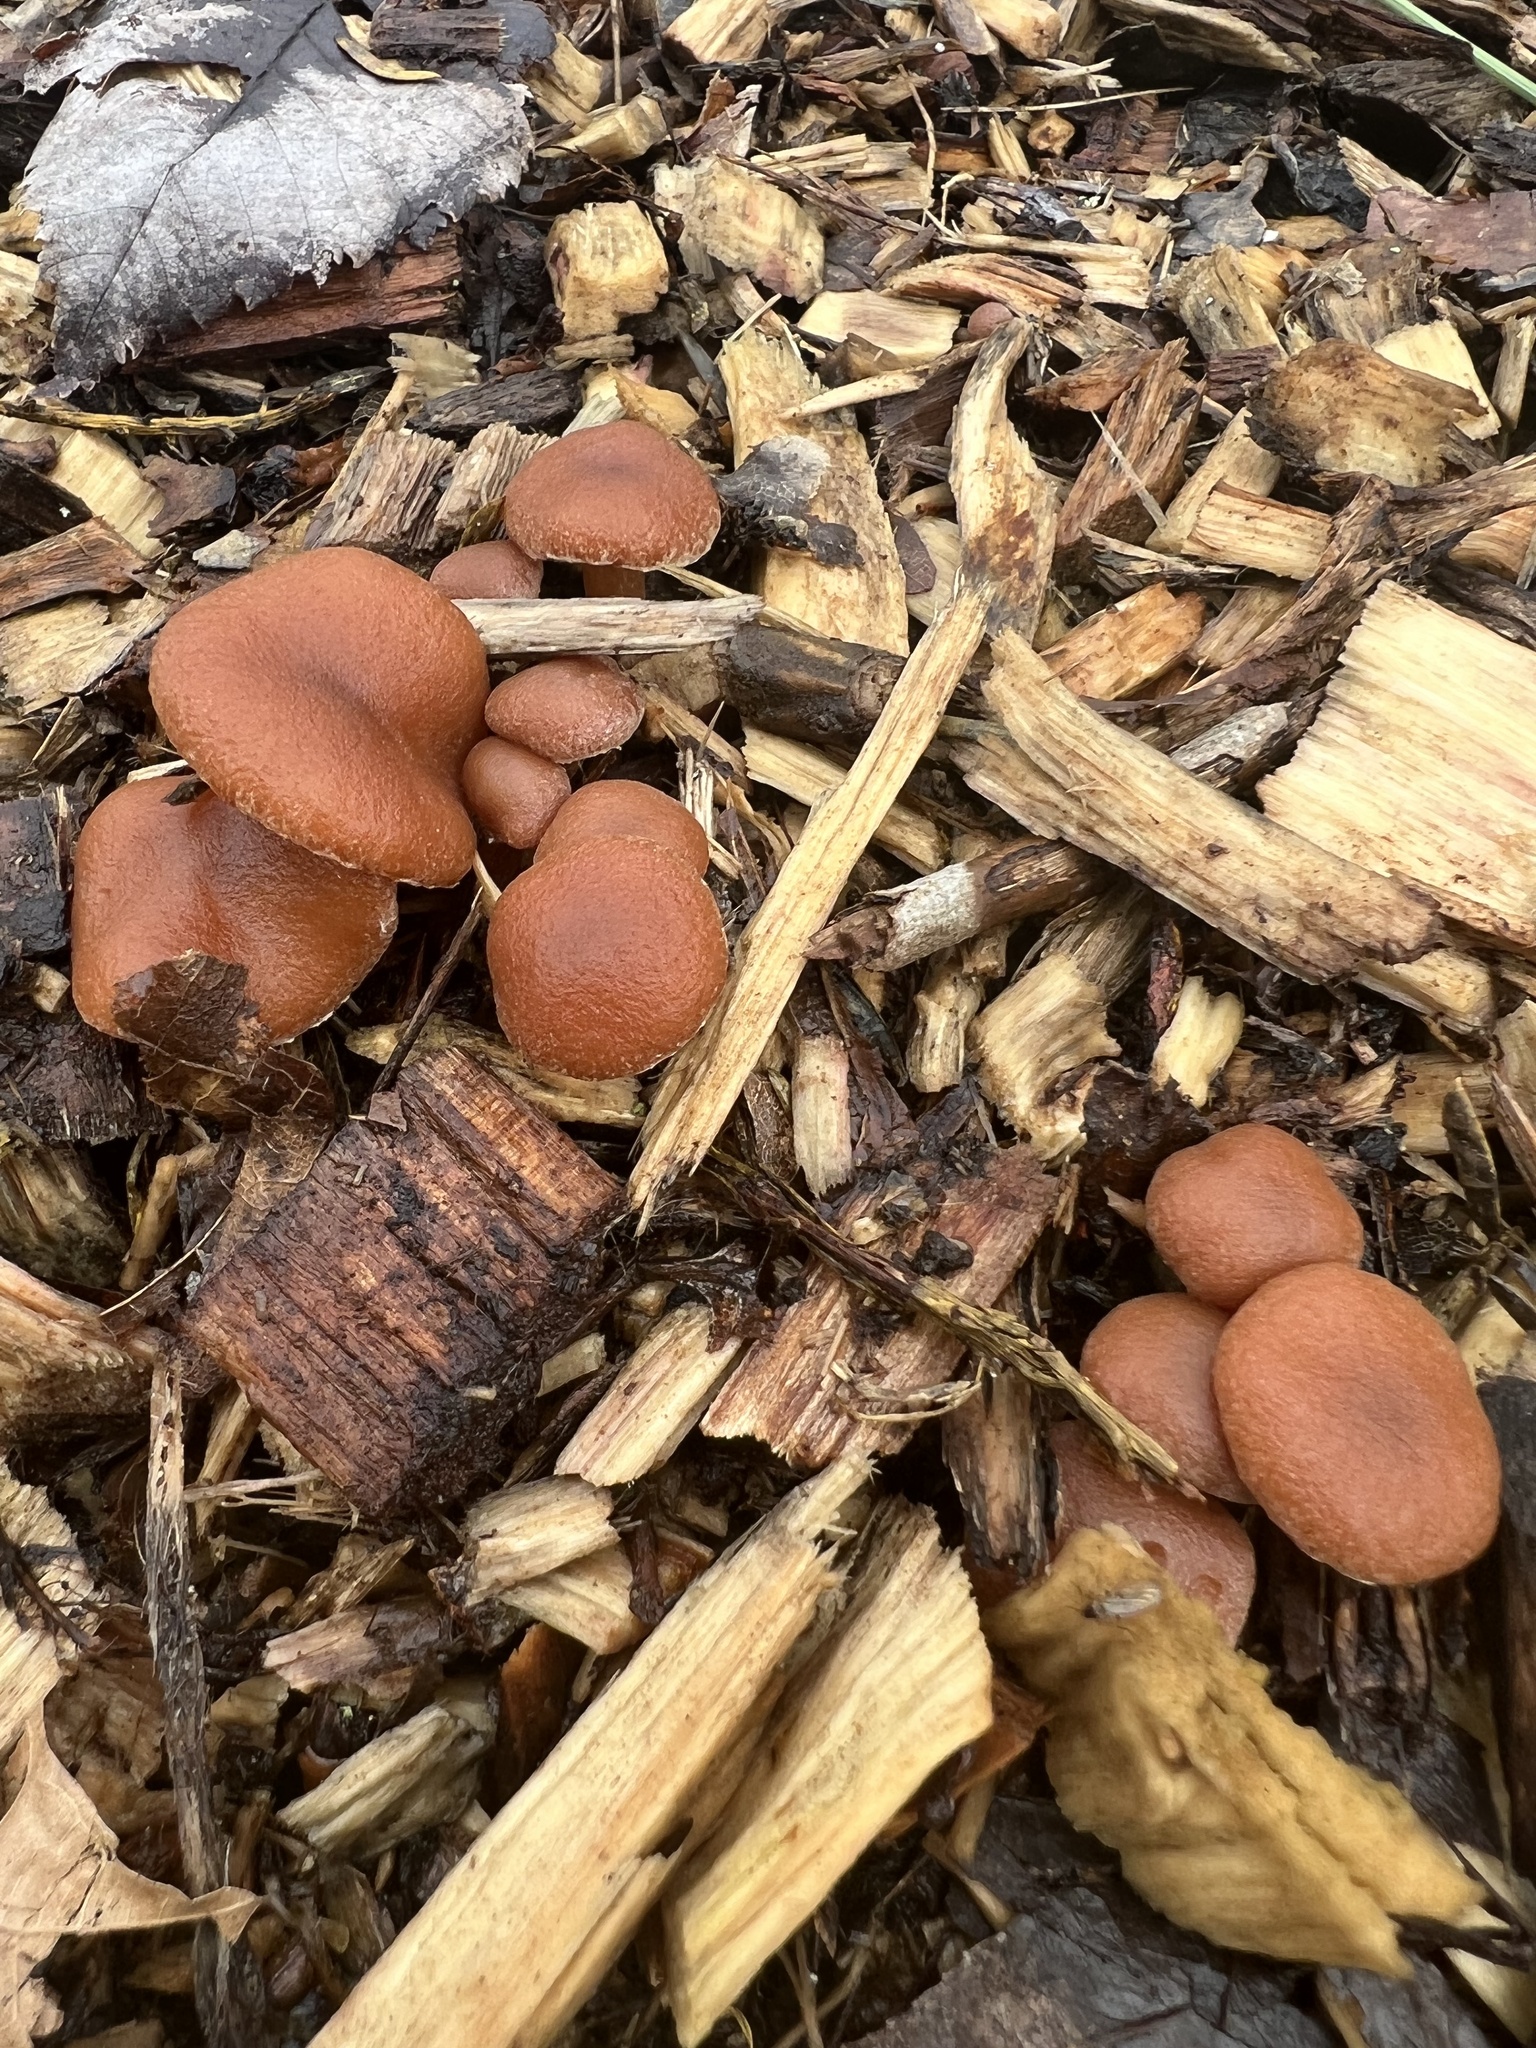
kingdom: Fungi
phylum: Basidiomycota
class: Agaricomycetes
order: Agaricales
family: Tubariaceae
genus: Tubaria
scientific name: Tubaria furfuracea
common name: Scurfy twiglet
